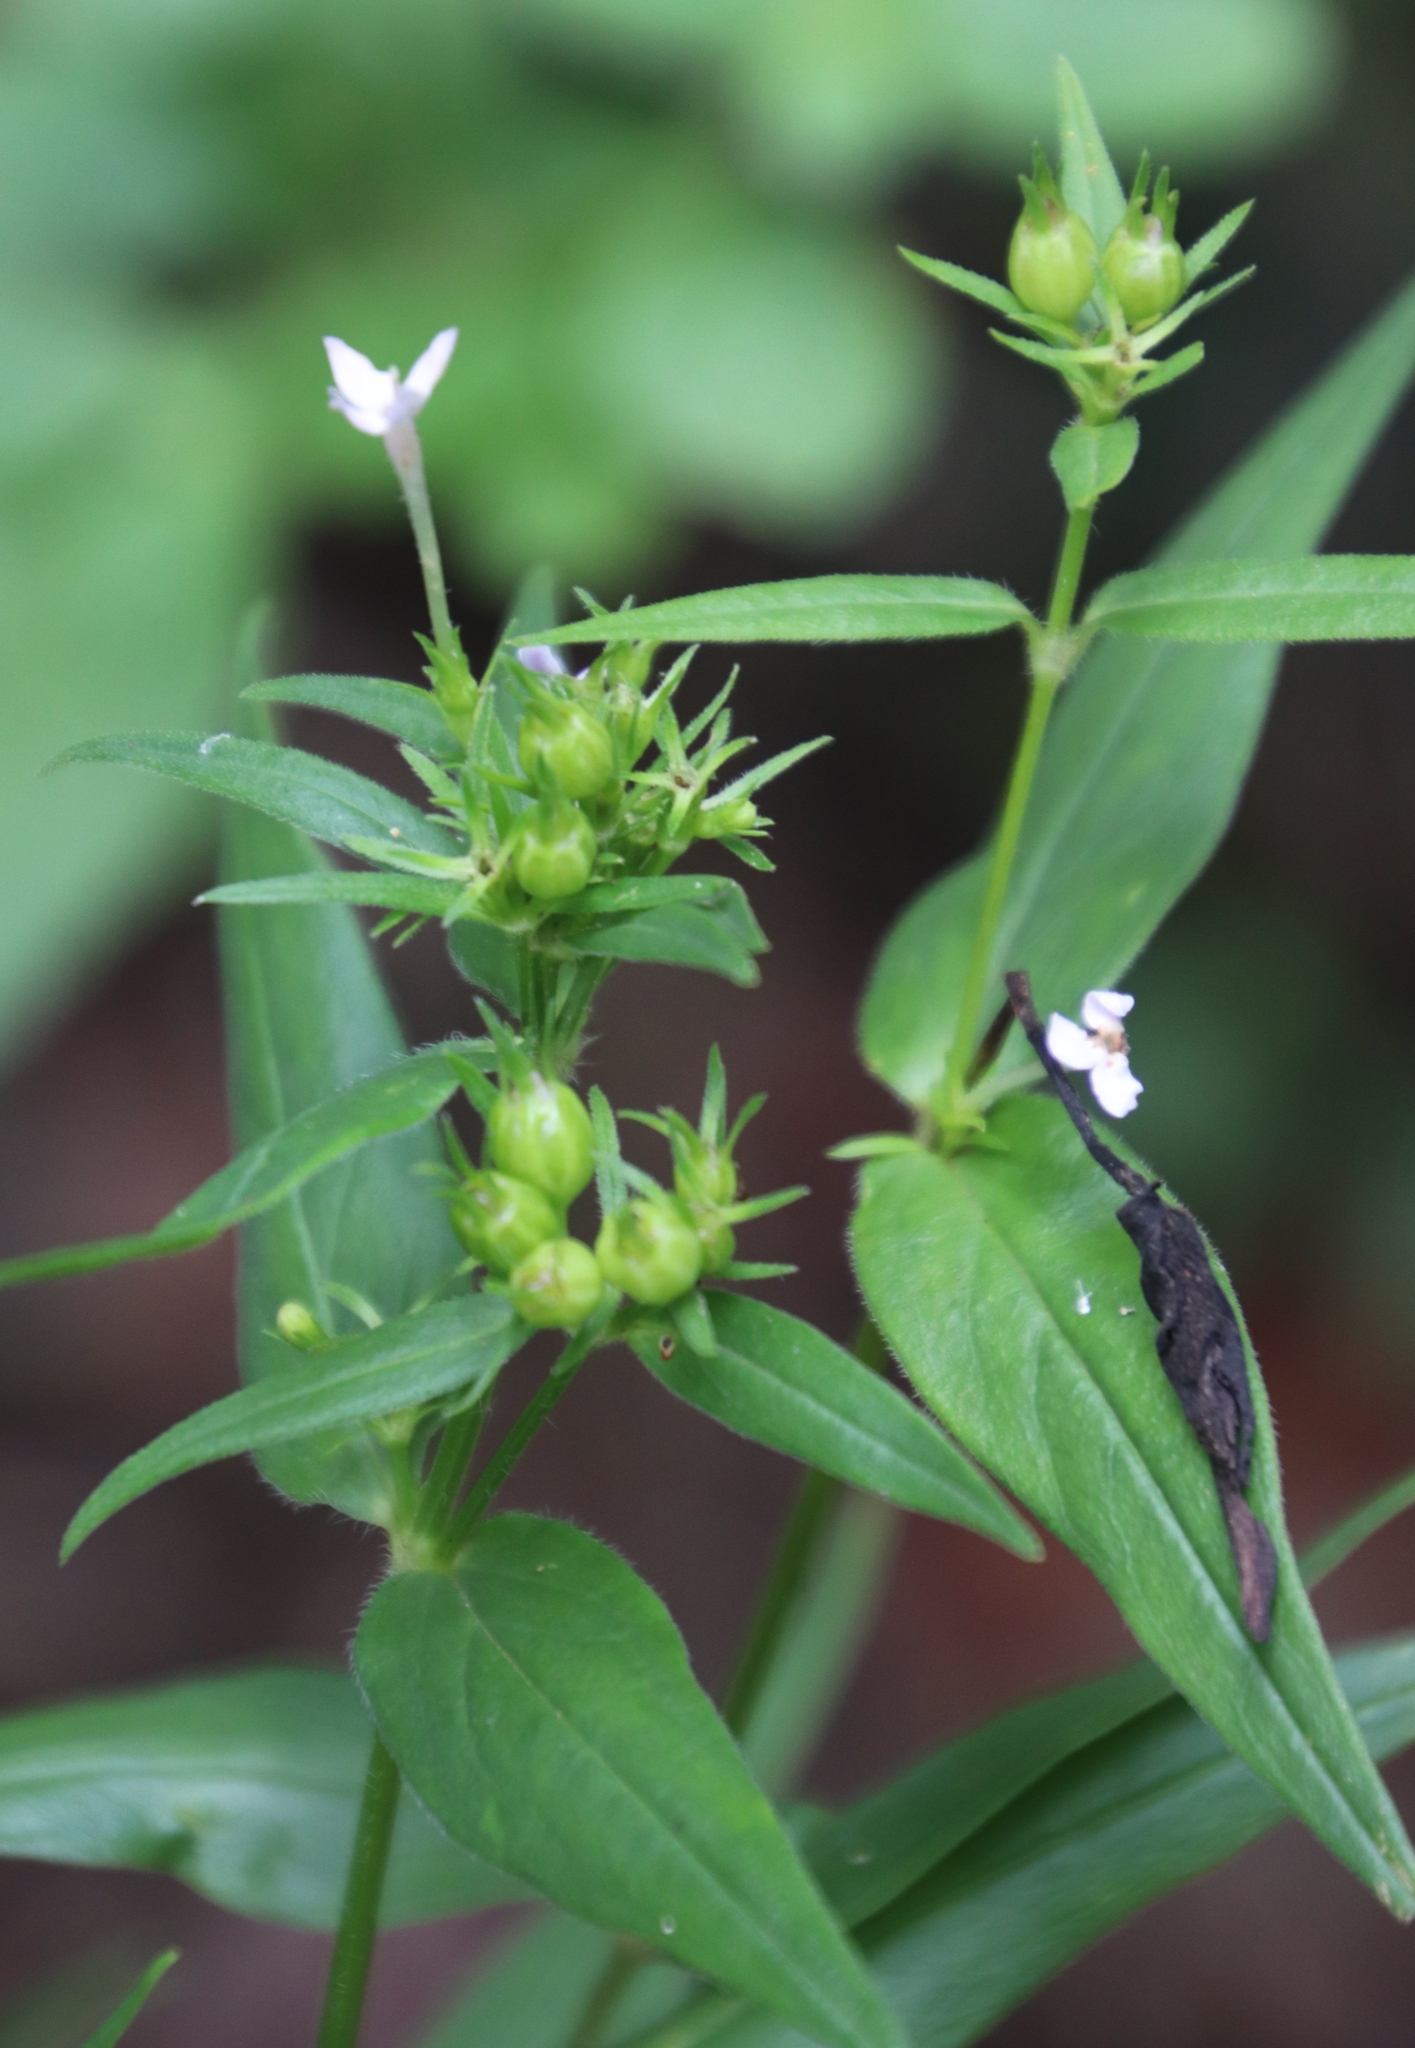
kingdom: Plantae
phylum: Tracheophyta
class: Magnoliopsida
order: Gentianales
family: Rubiaceae
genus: Conostomium
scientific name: Conostomium natalense
